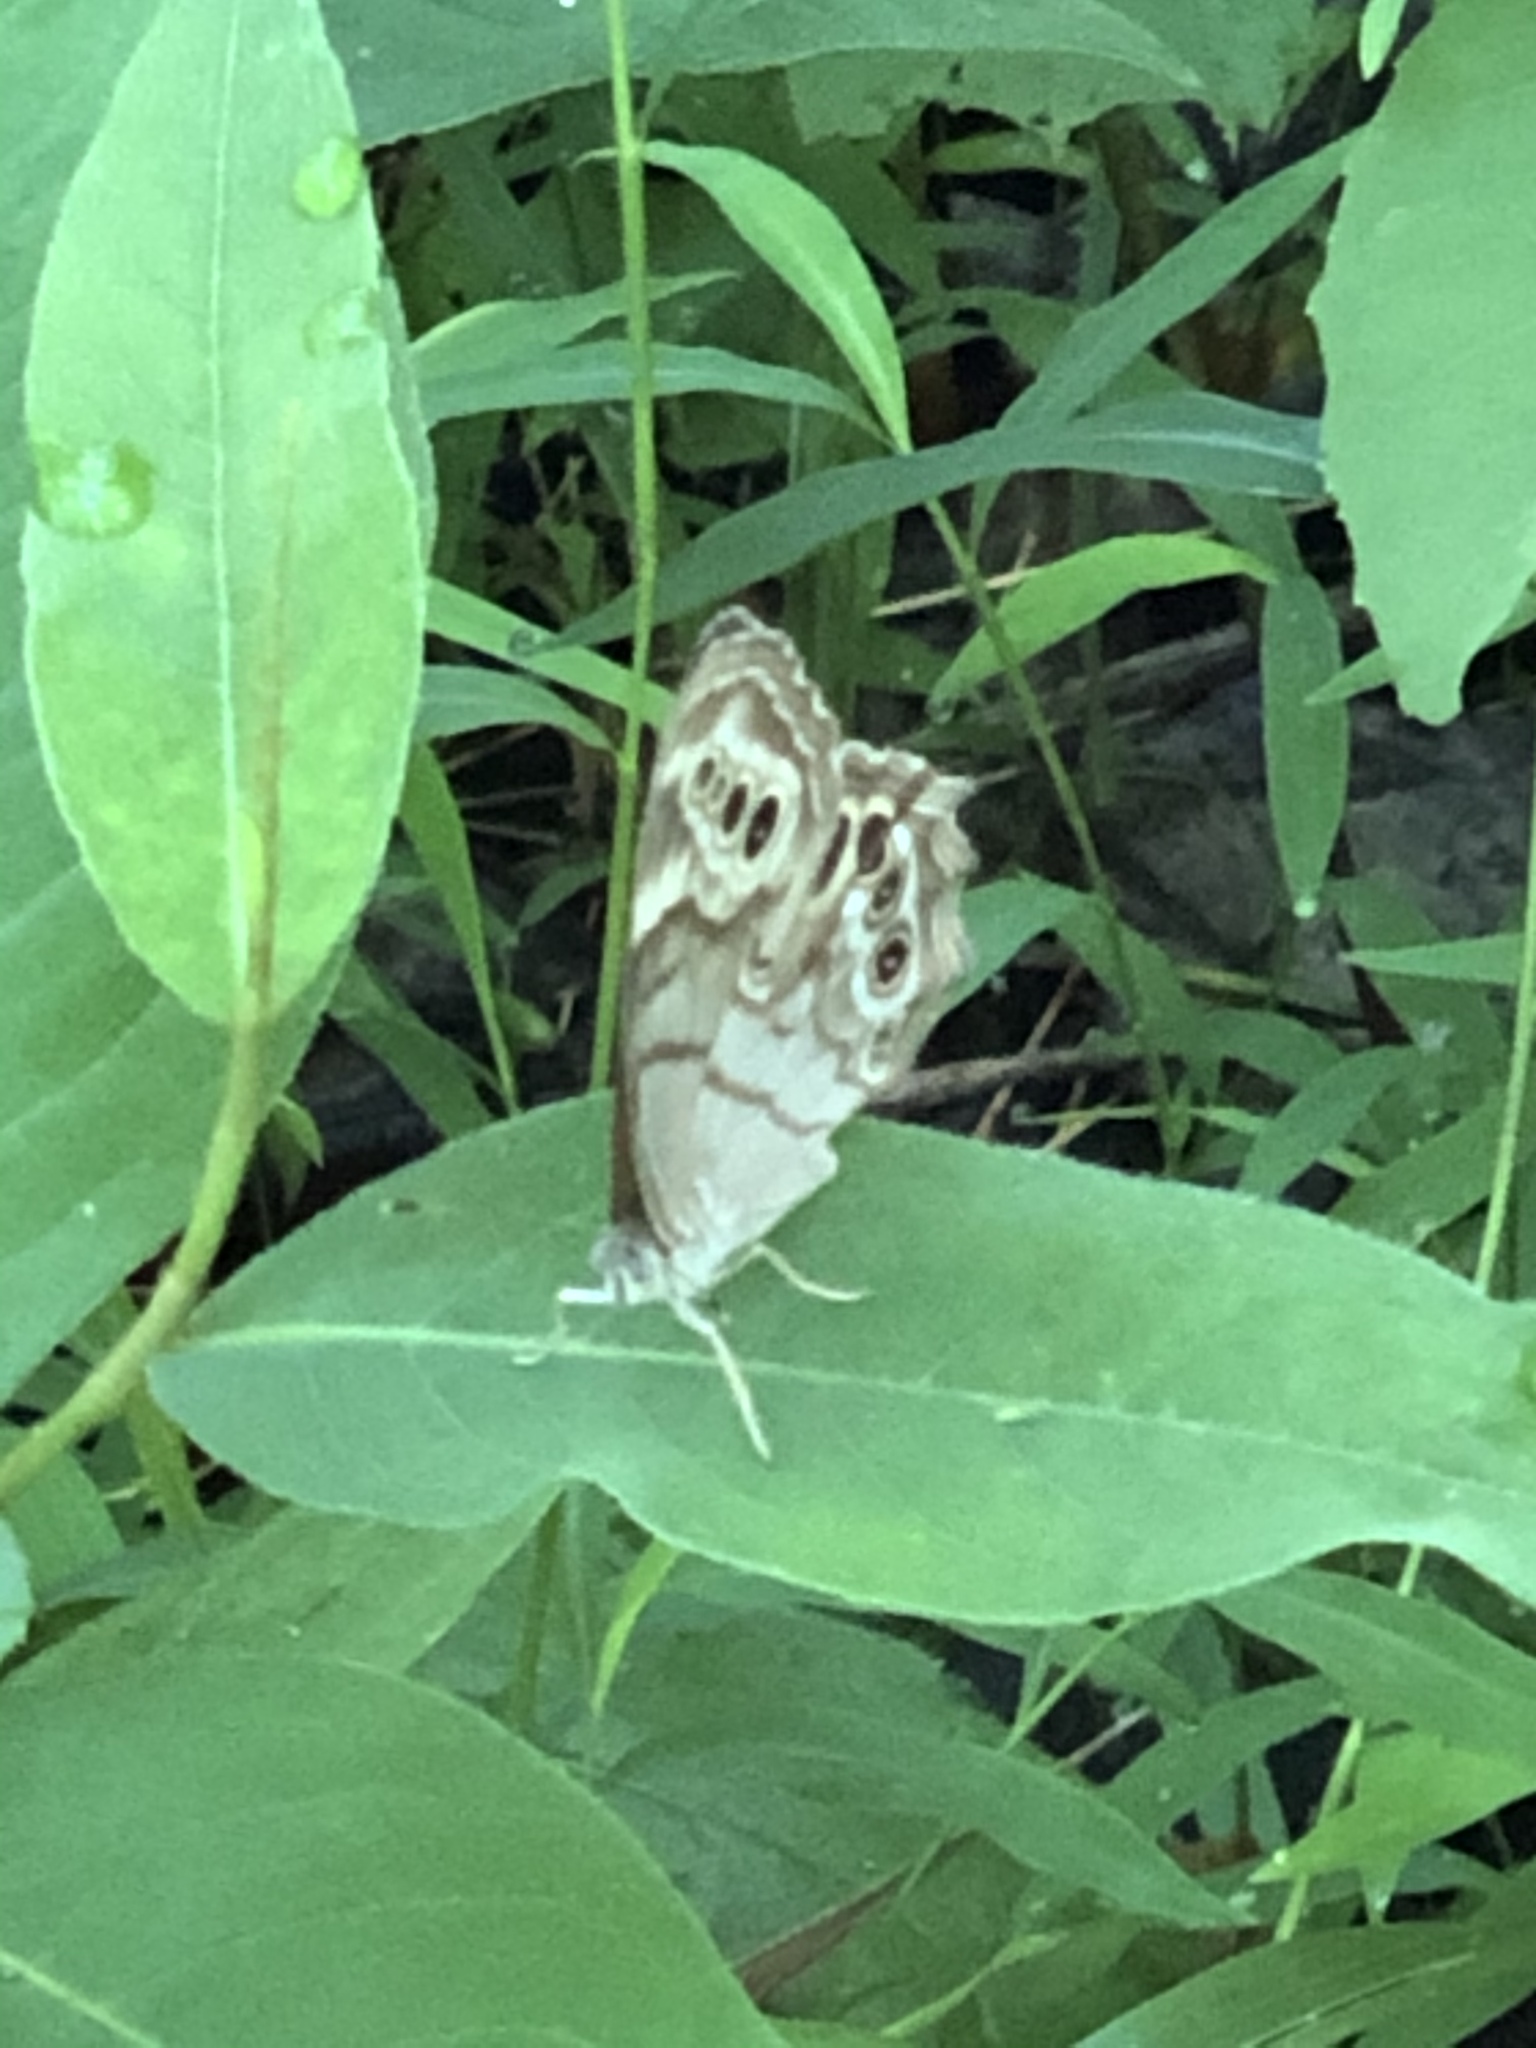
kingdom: Animalia
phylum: Arthropoda
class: Insecta
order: Lepidoptera
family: Nymphalidae
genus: Lethe
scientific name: Lethe anthedon
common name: Northern pearly-eye
